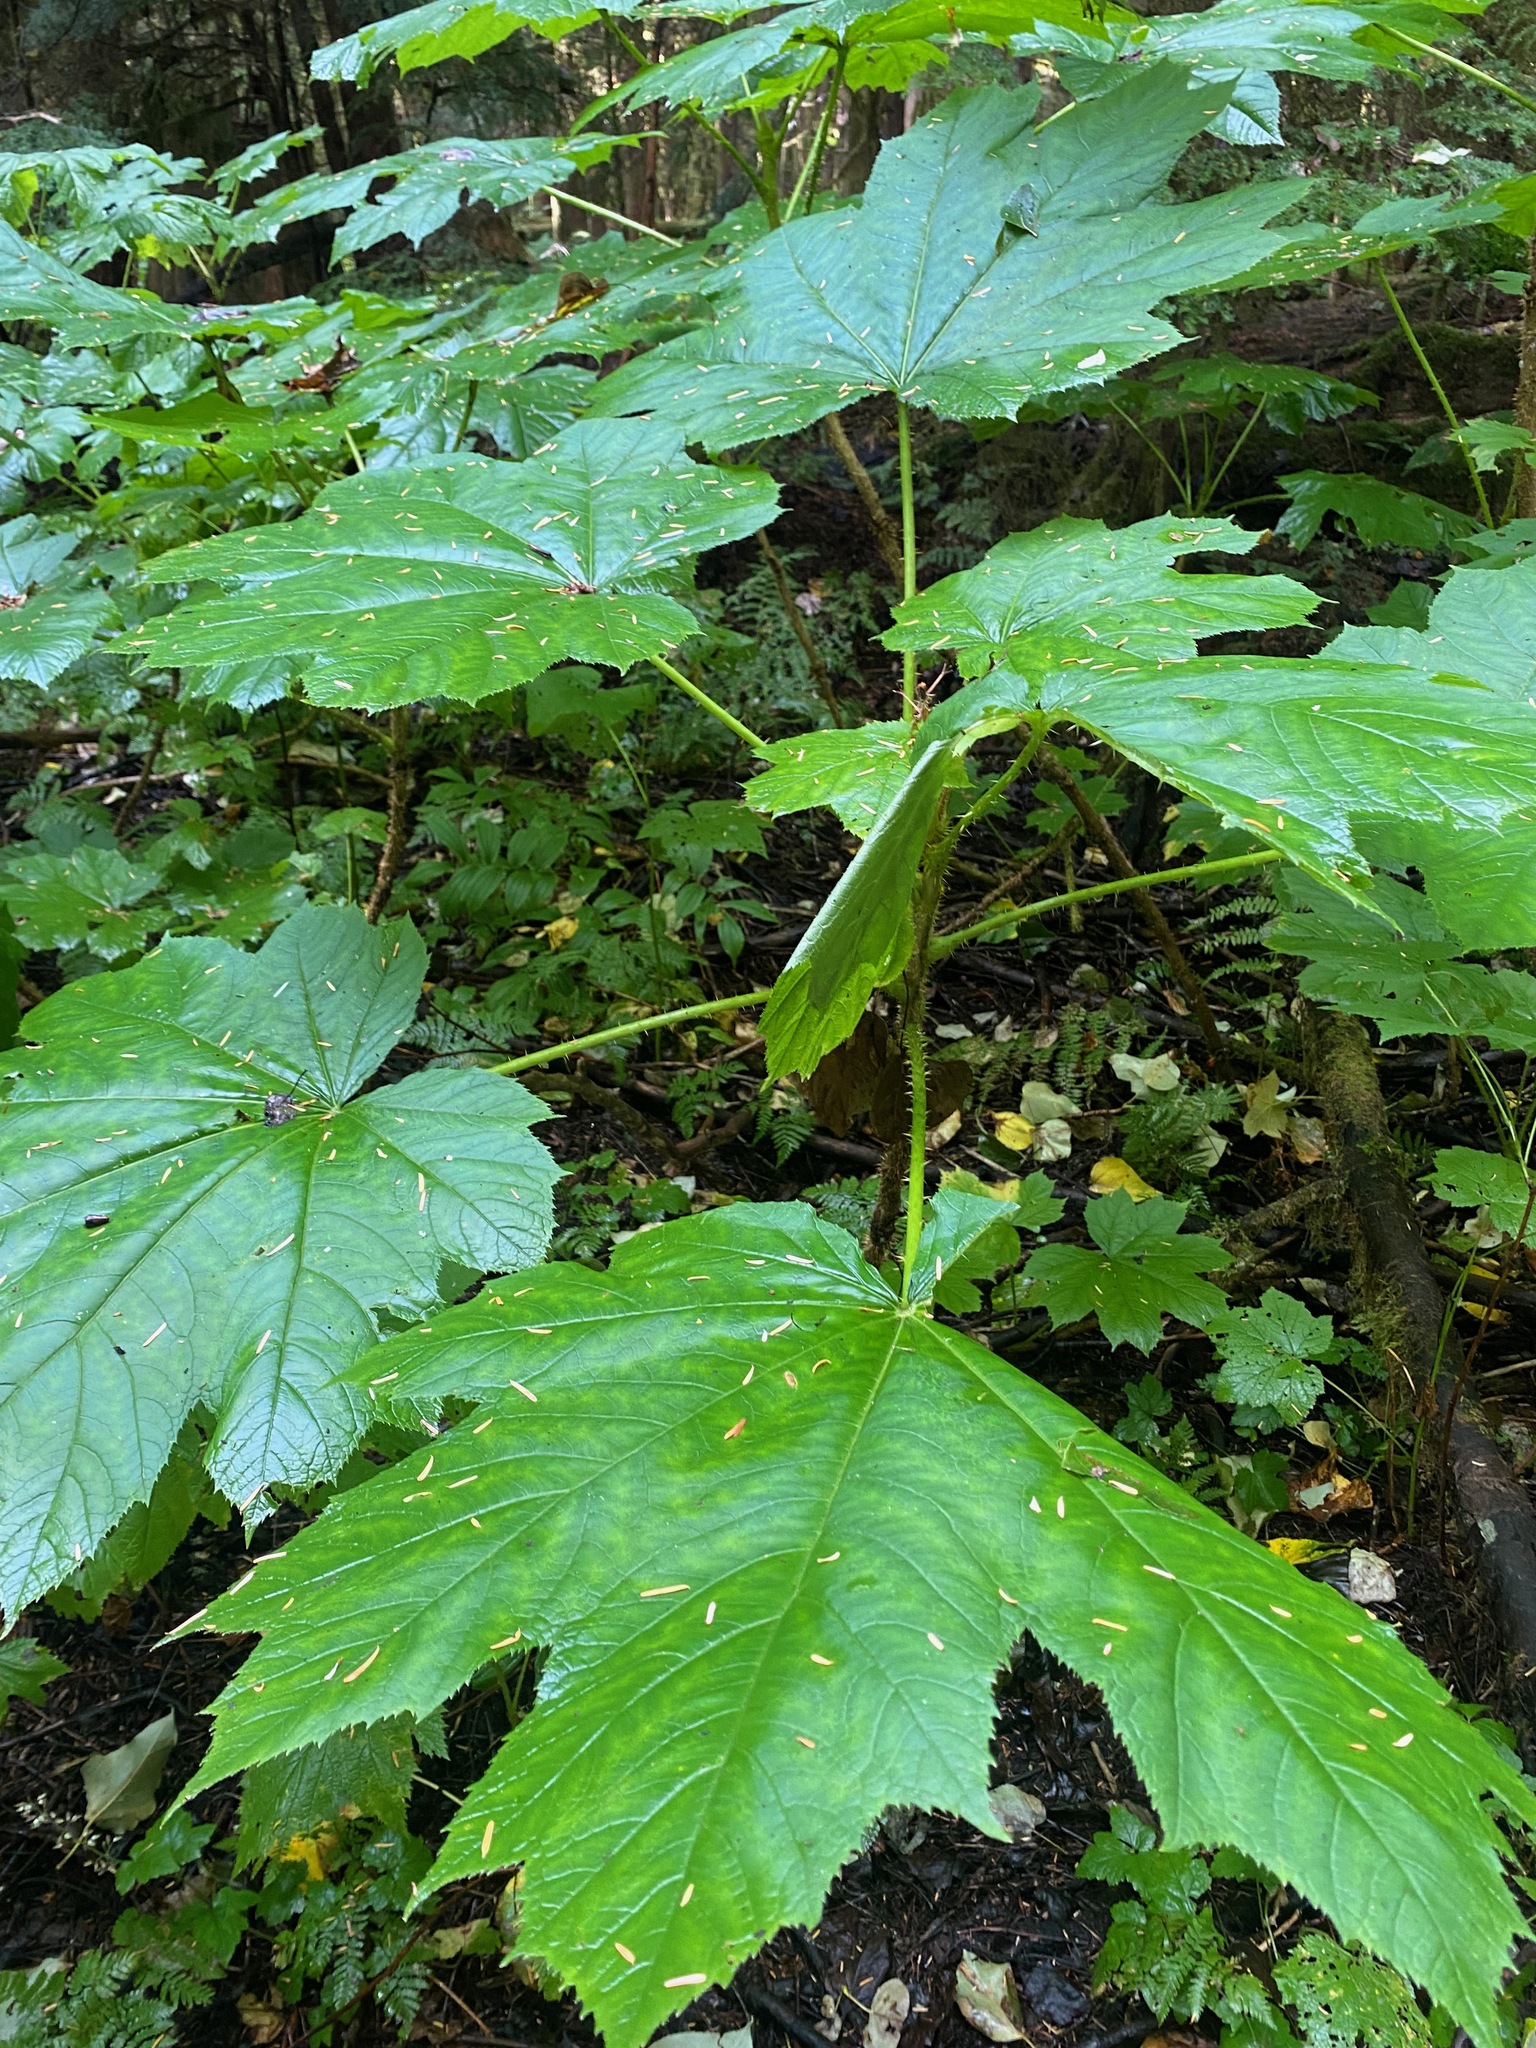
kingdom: Plantae
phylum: Tracheophyta
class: Magnoliopsida
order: Apiales
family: Araliaceae
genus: Oplopanax
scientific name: Oplopanax horridus
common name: Devil's walking-stick
